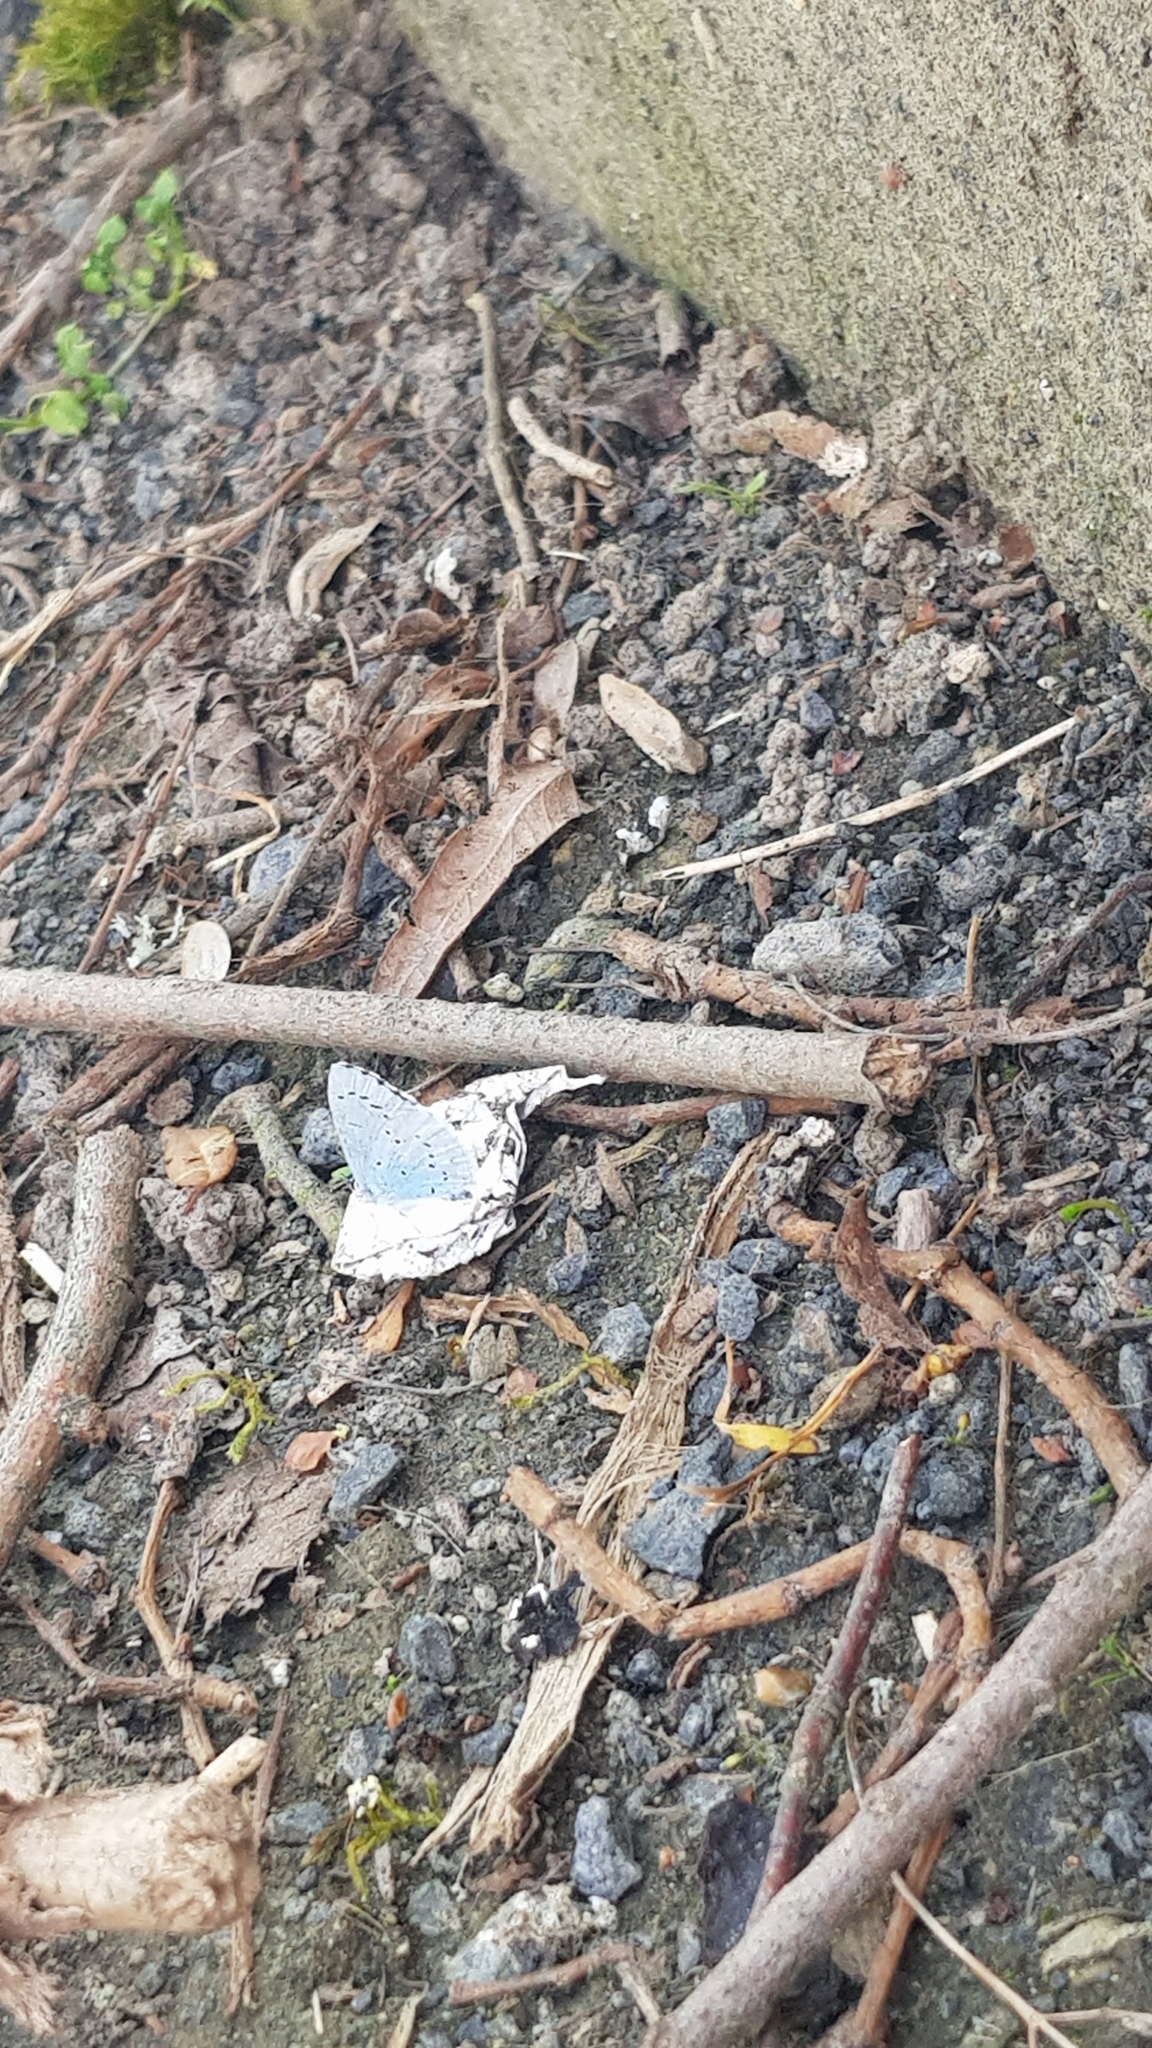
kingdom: Animalia
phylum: Arthropoda
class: Insecta
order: Lepidoptera
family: Lycaenidae
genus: Celastrina
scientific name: Celastrina argiolus
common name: Holly blue
